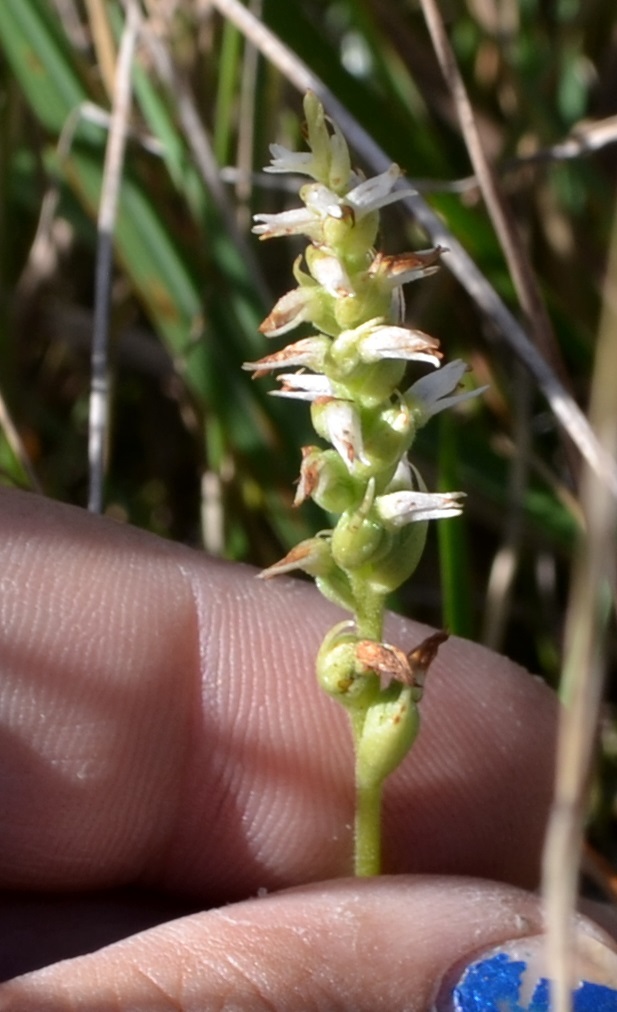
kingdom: Plantae
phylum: Tracheophyta
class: Liliopsida
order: Asparagales
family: Orchidaceae
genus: Spiranthes
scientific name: Spiranthes ovalis
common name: October ladies'-tresses
